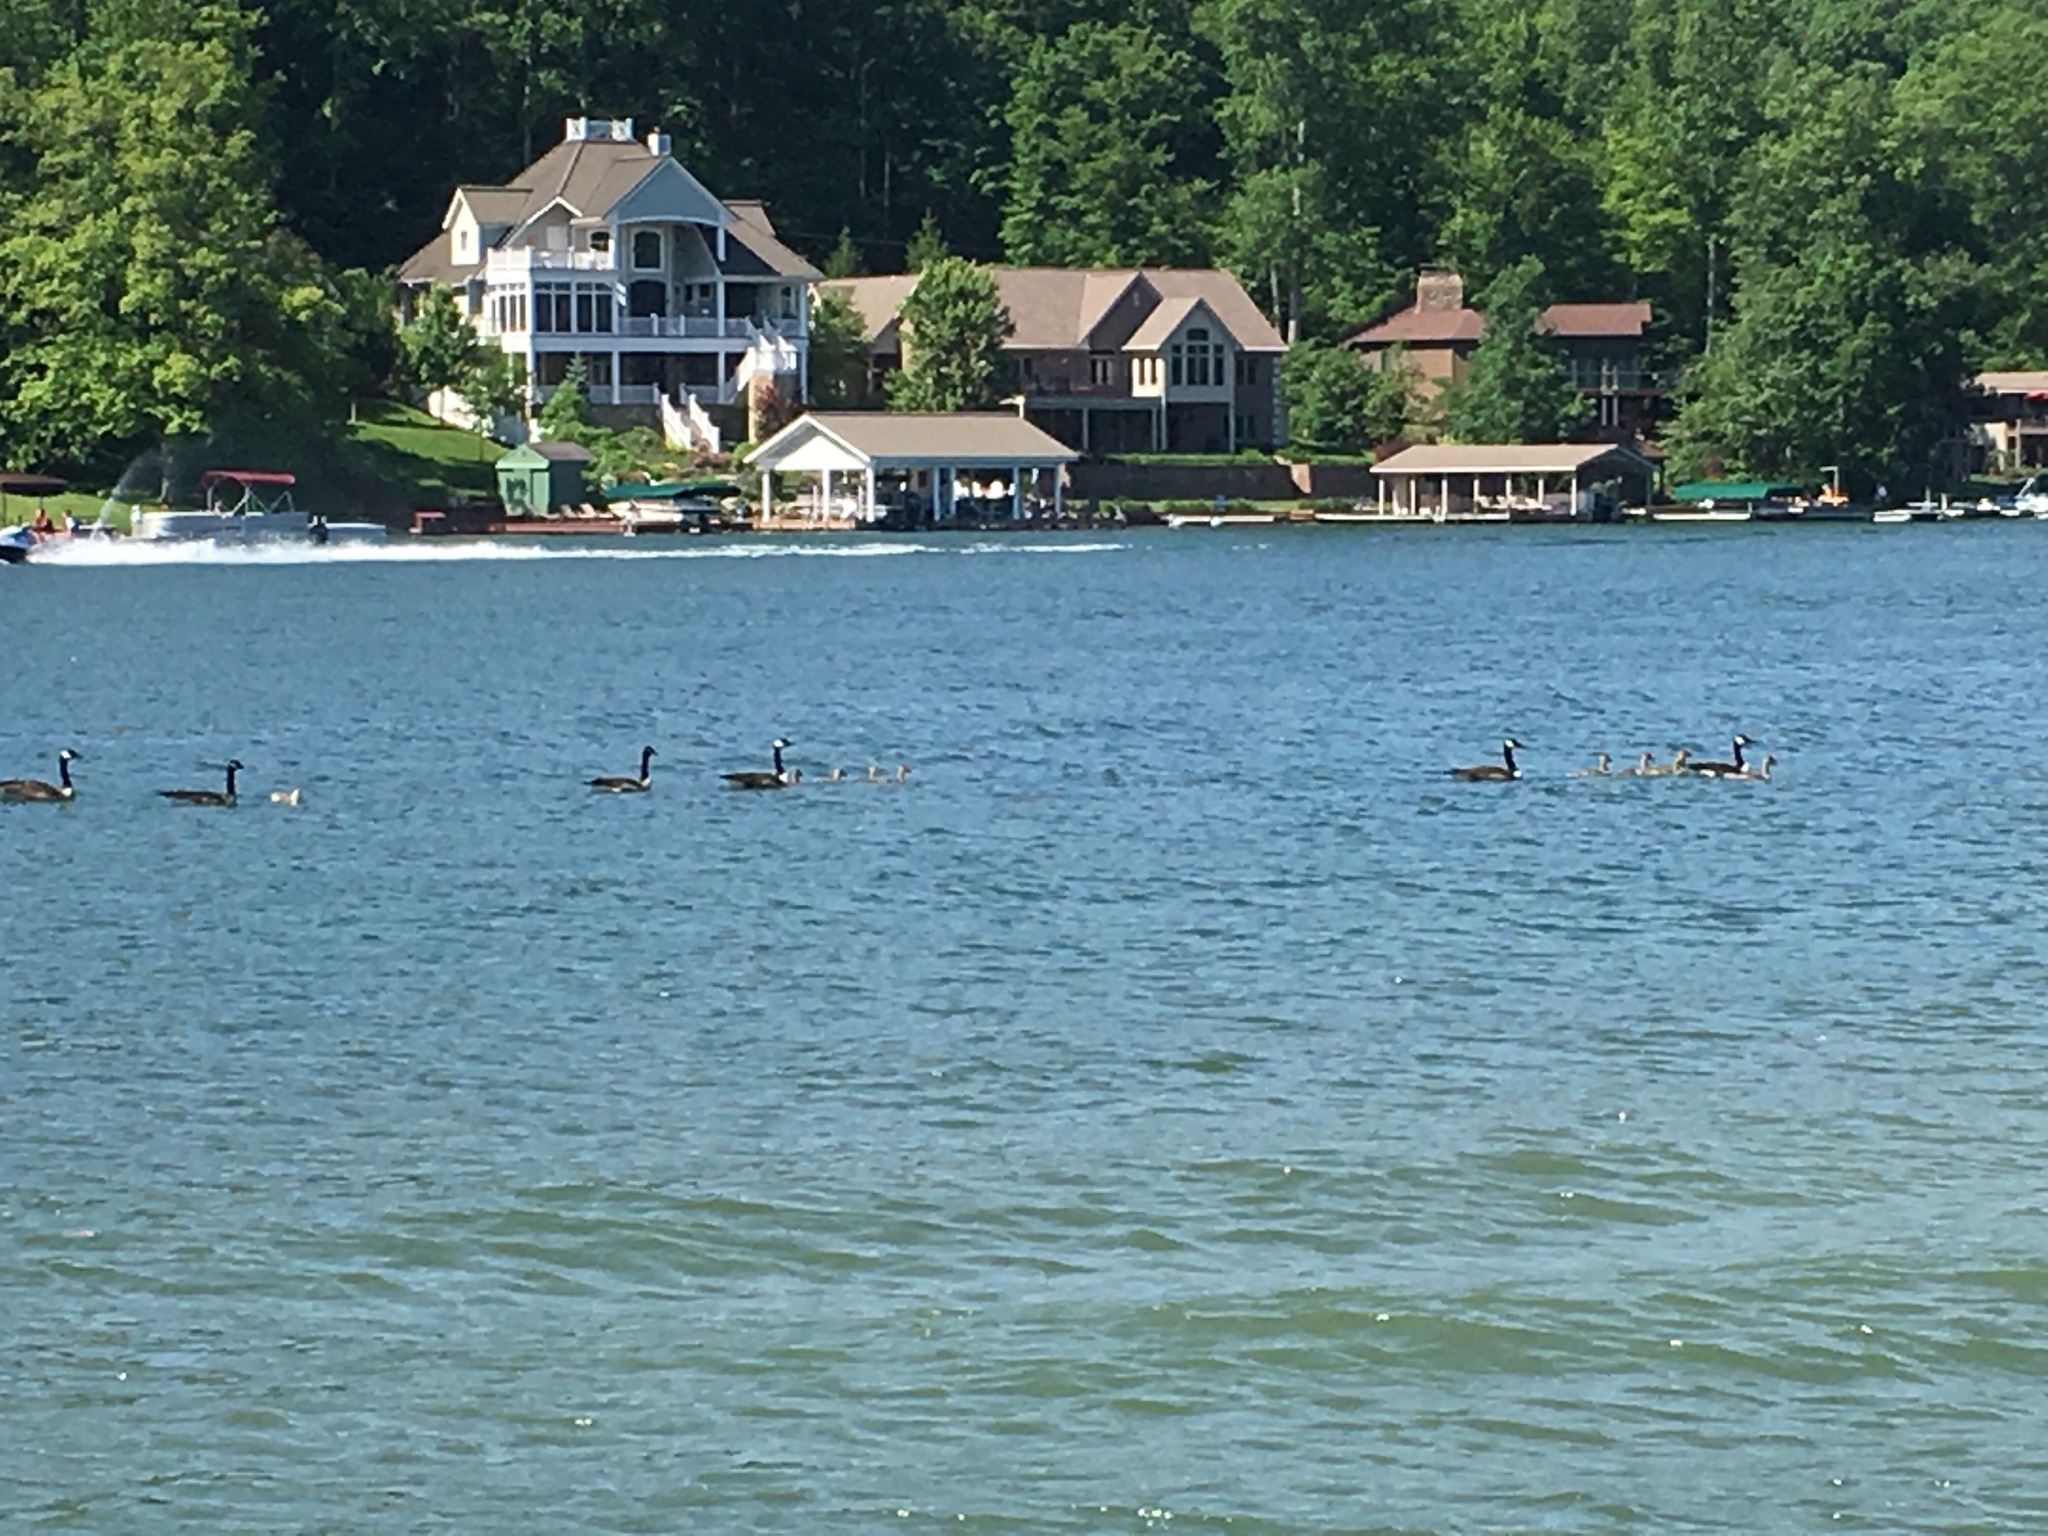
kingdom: Animalia
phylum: Chordata
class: Aves
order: Anseriformes
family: Anatidae
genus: Branta
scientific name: Branta canadensis
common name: Canada goose
